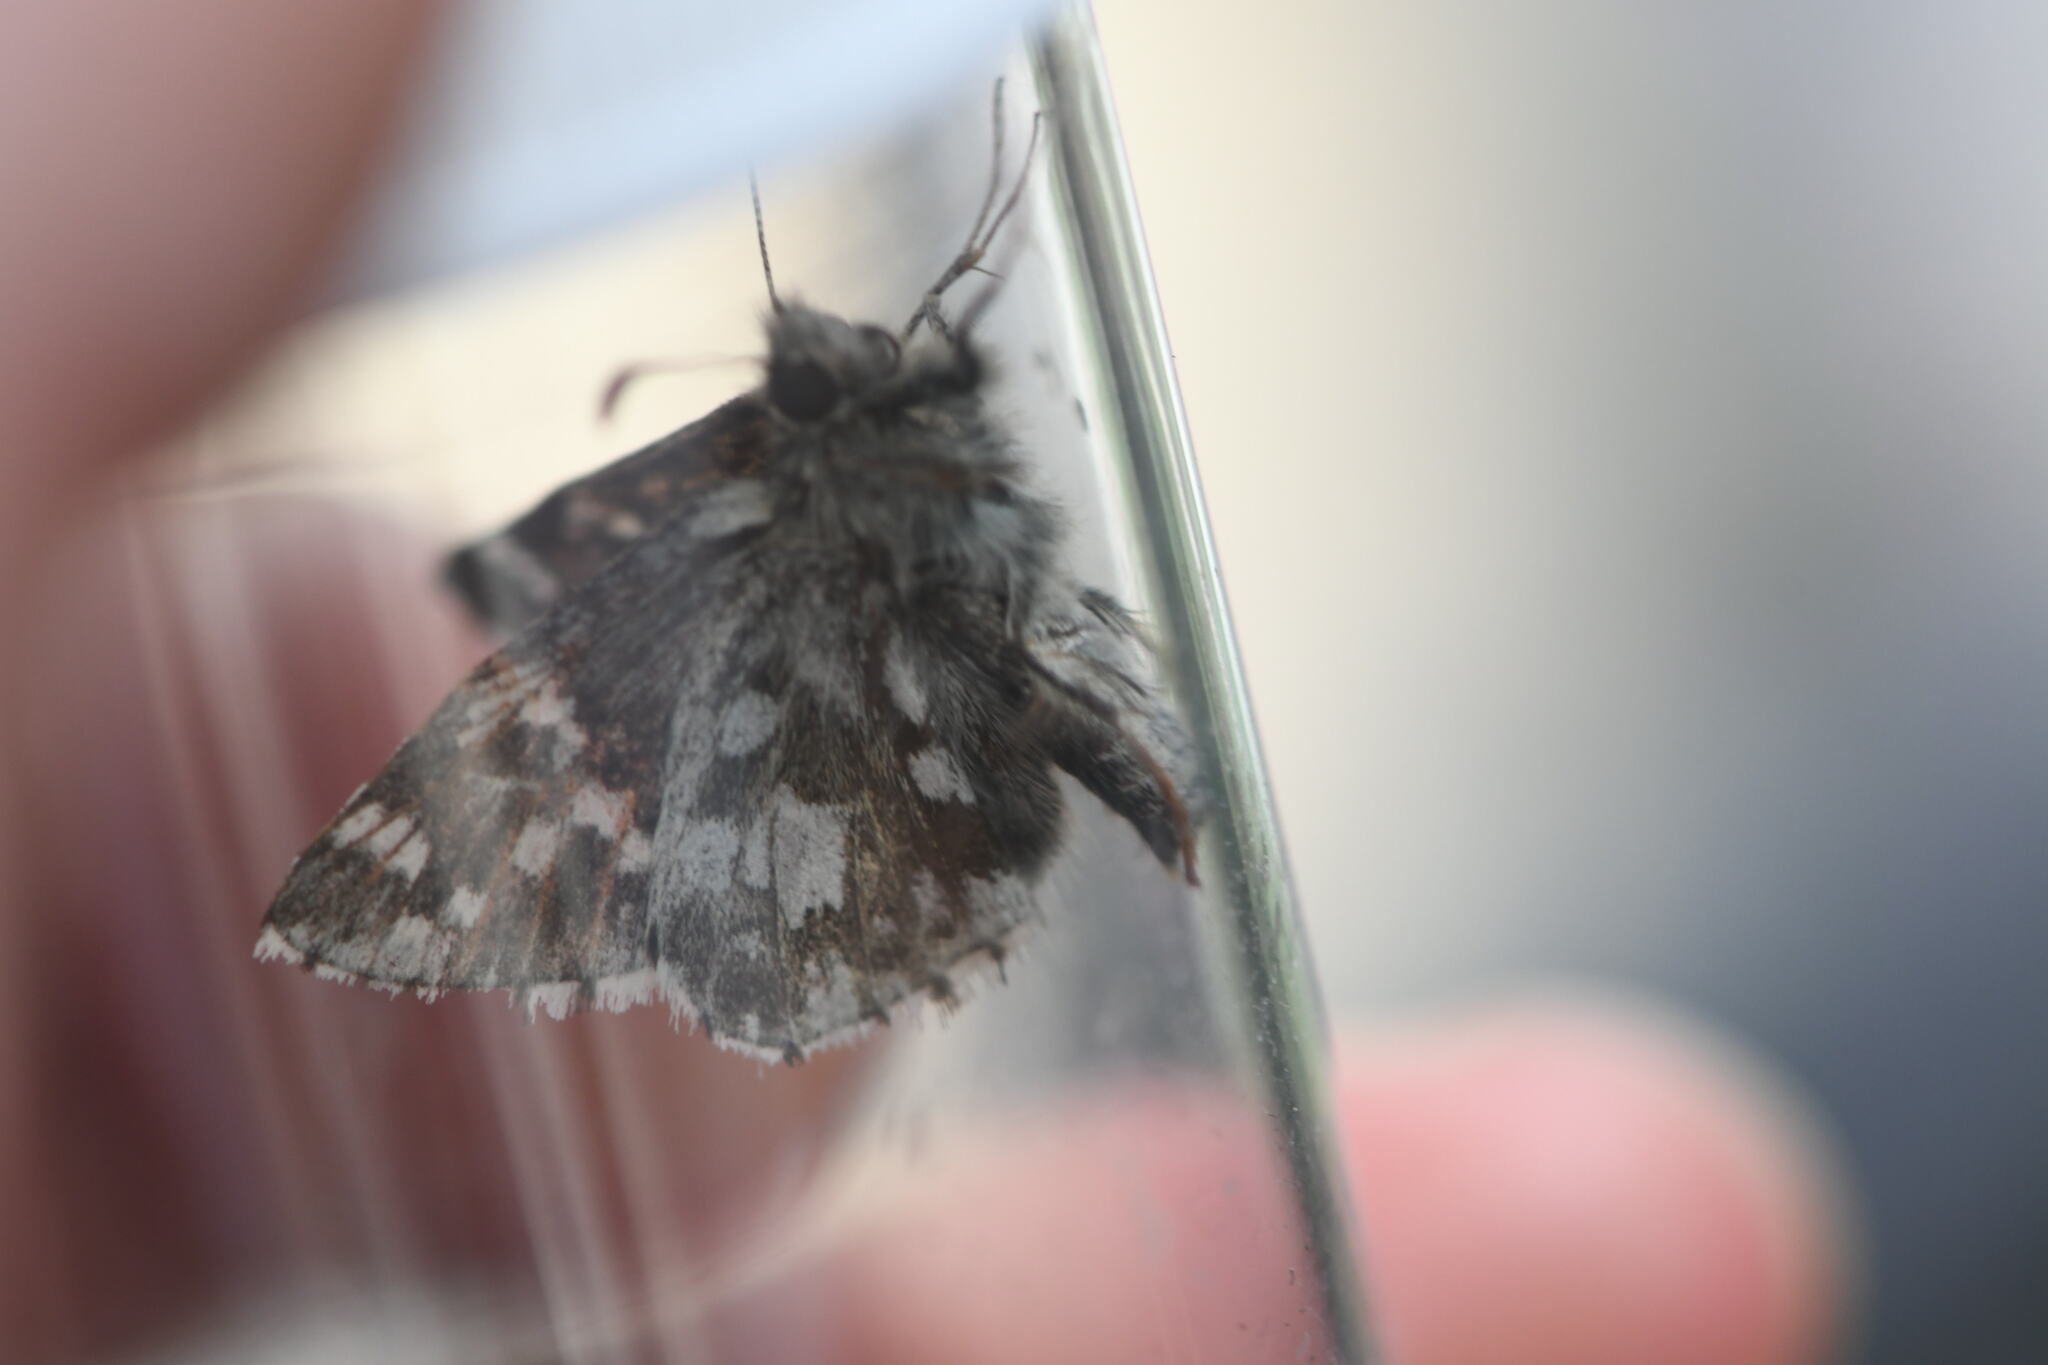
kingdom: Animalia
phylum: Arthropoda
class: Insecta
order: Lepidoptera
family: Hesperiidae
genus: Pyrgus
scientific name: Pyrgus andromedae
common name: Alpine grizzled skipper
